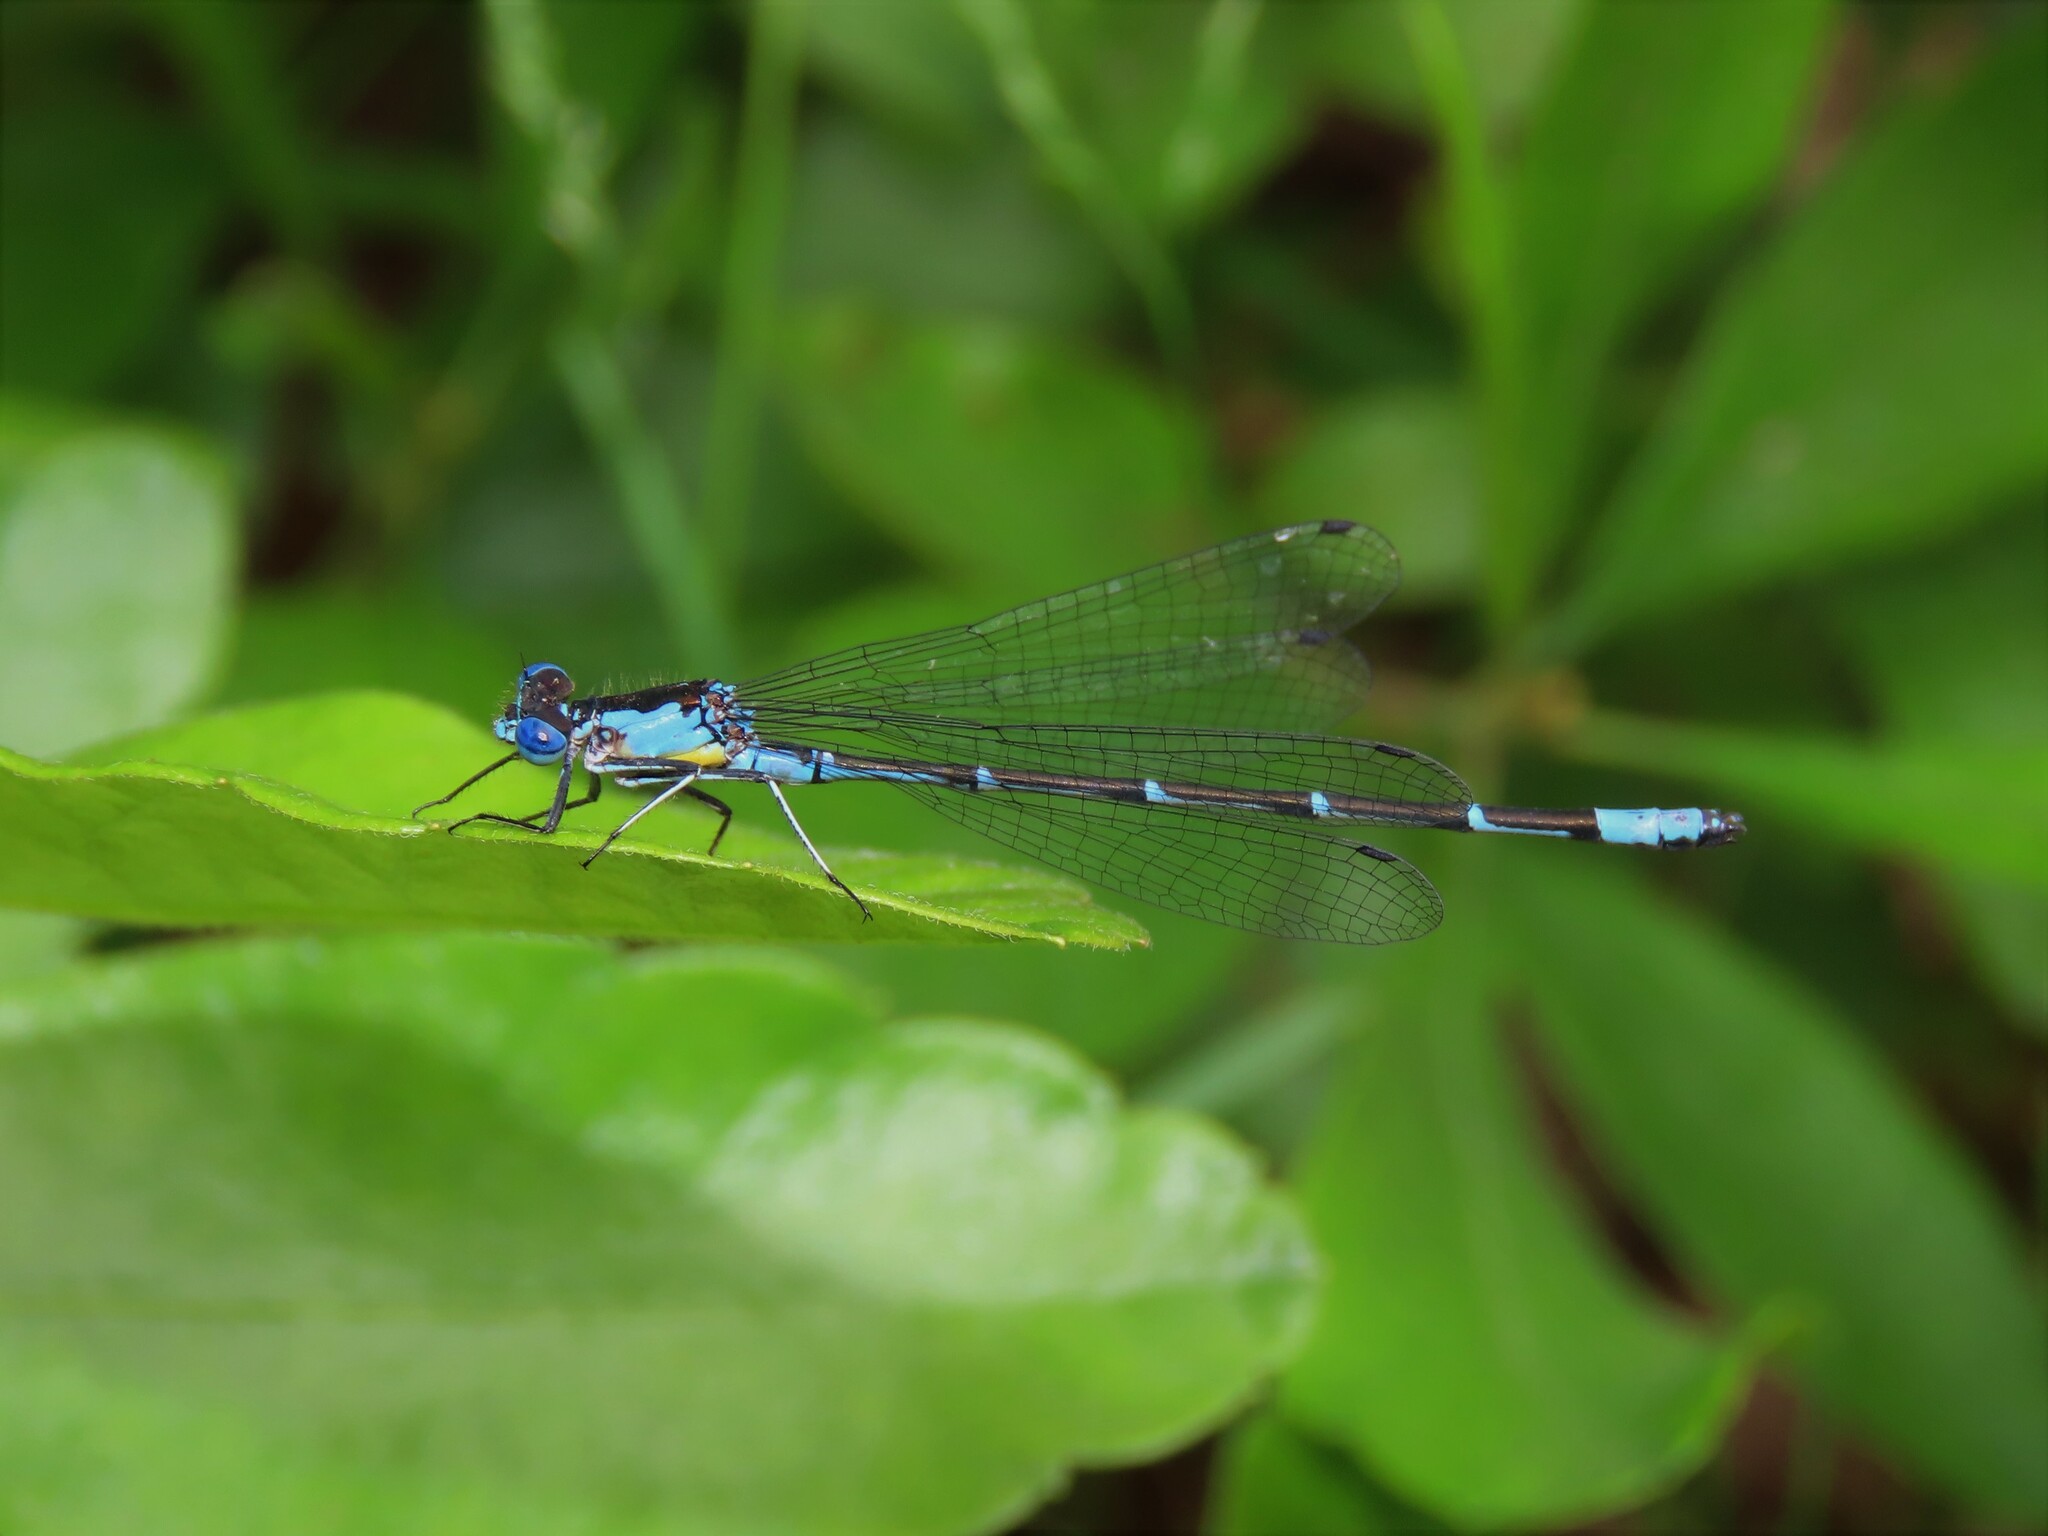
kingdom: Animalia
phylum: Arthropoda
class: Insecta
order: Odonata
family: Coenagrionidae
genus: Chromagrion
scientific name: Chromagrion conditum
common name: Aurora damsel
